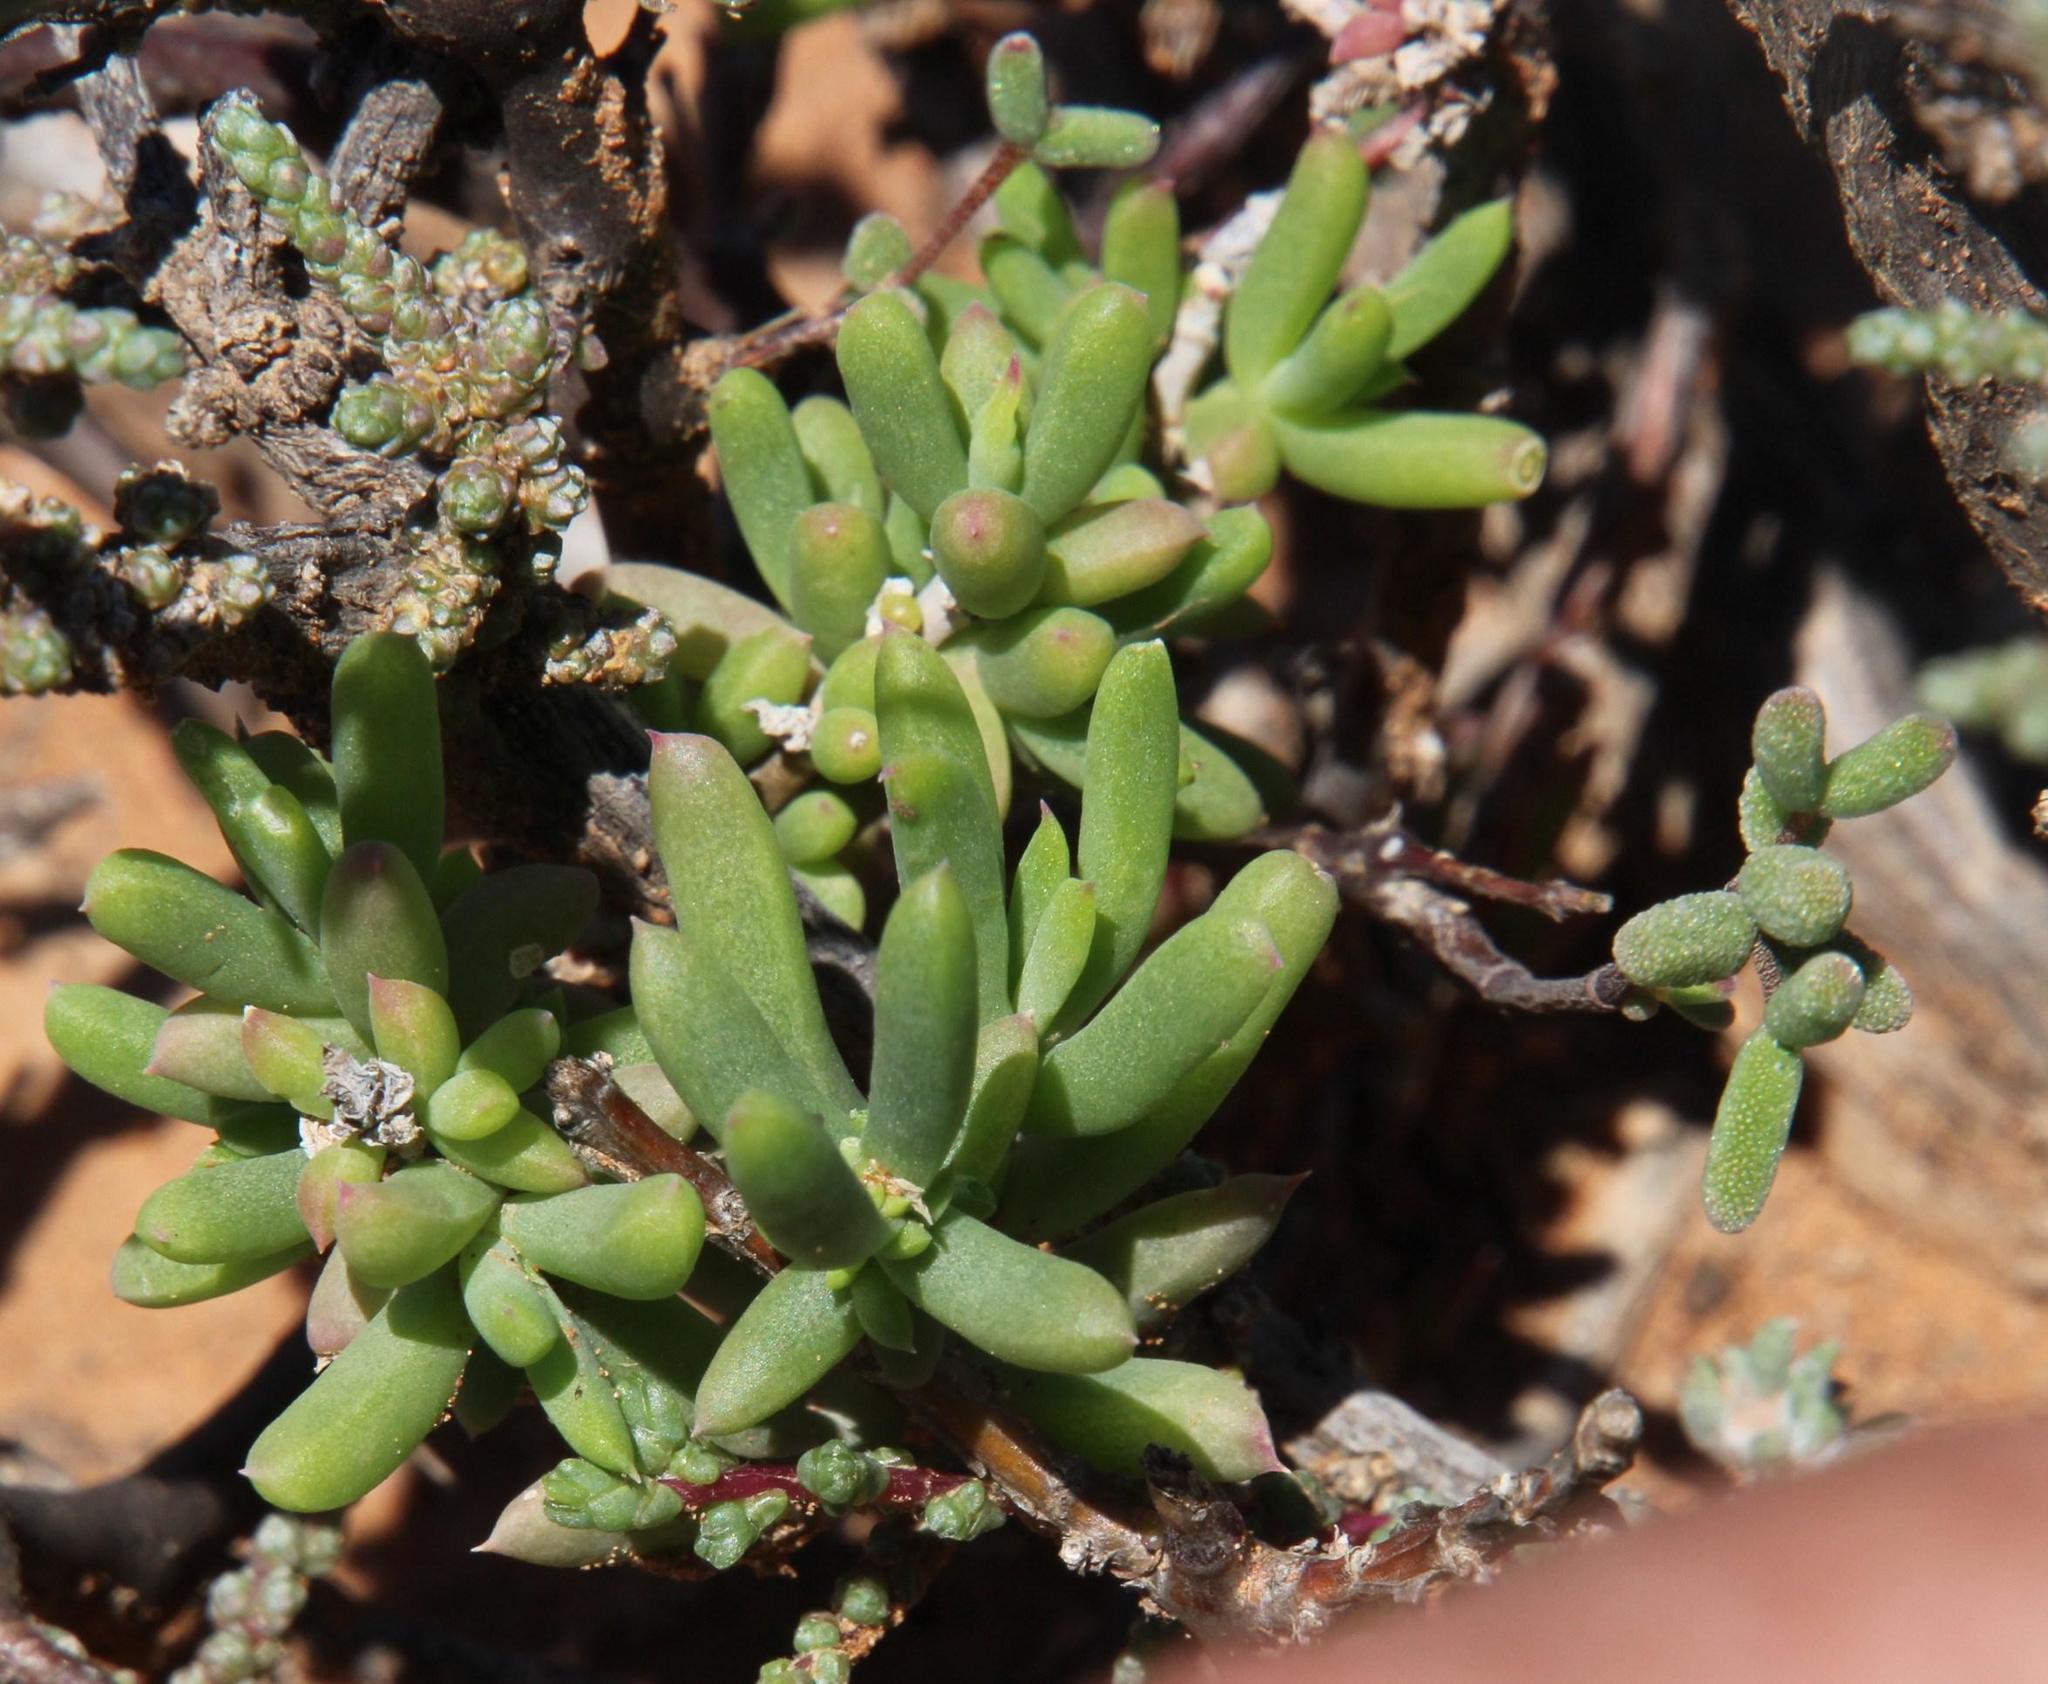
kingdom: Plantae
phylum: Tracheophyta
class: Magnoliopsida
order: Caryophyllales
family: Aizoaceae
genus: Delosperma
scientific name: Delosperma peersii
